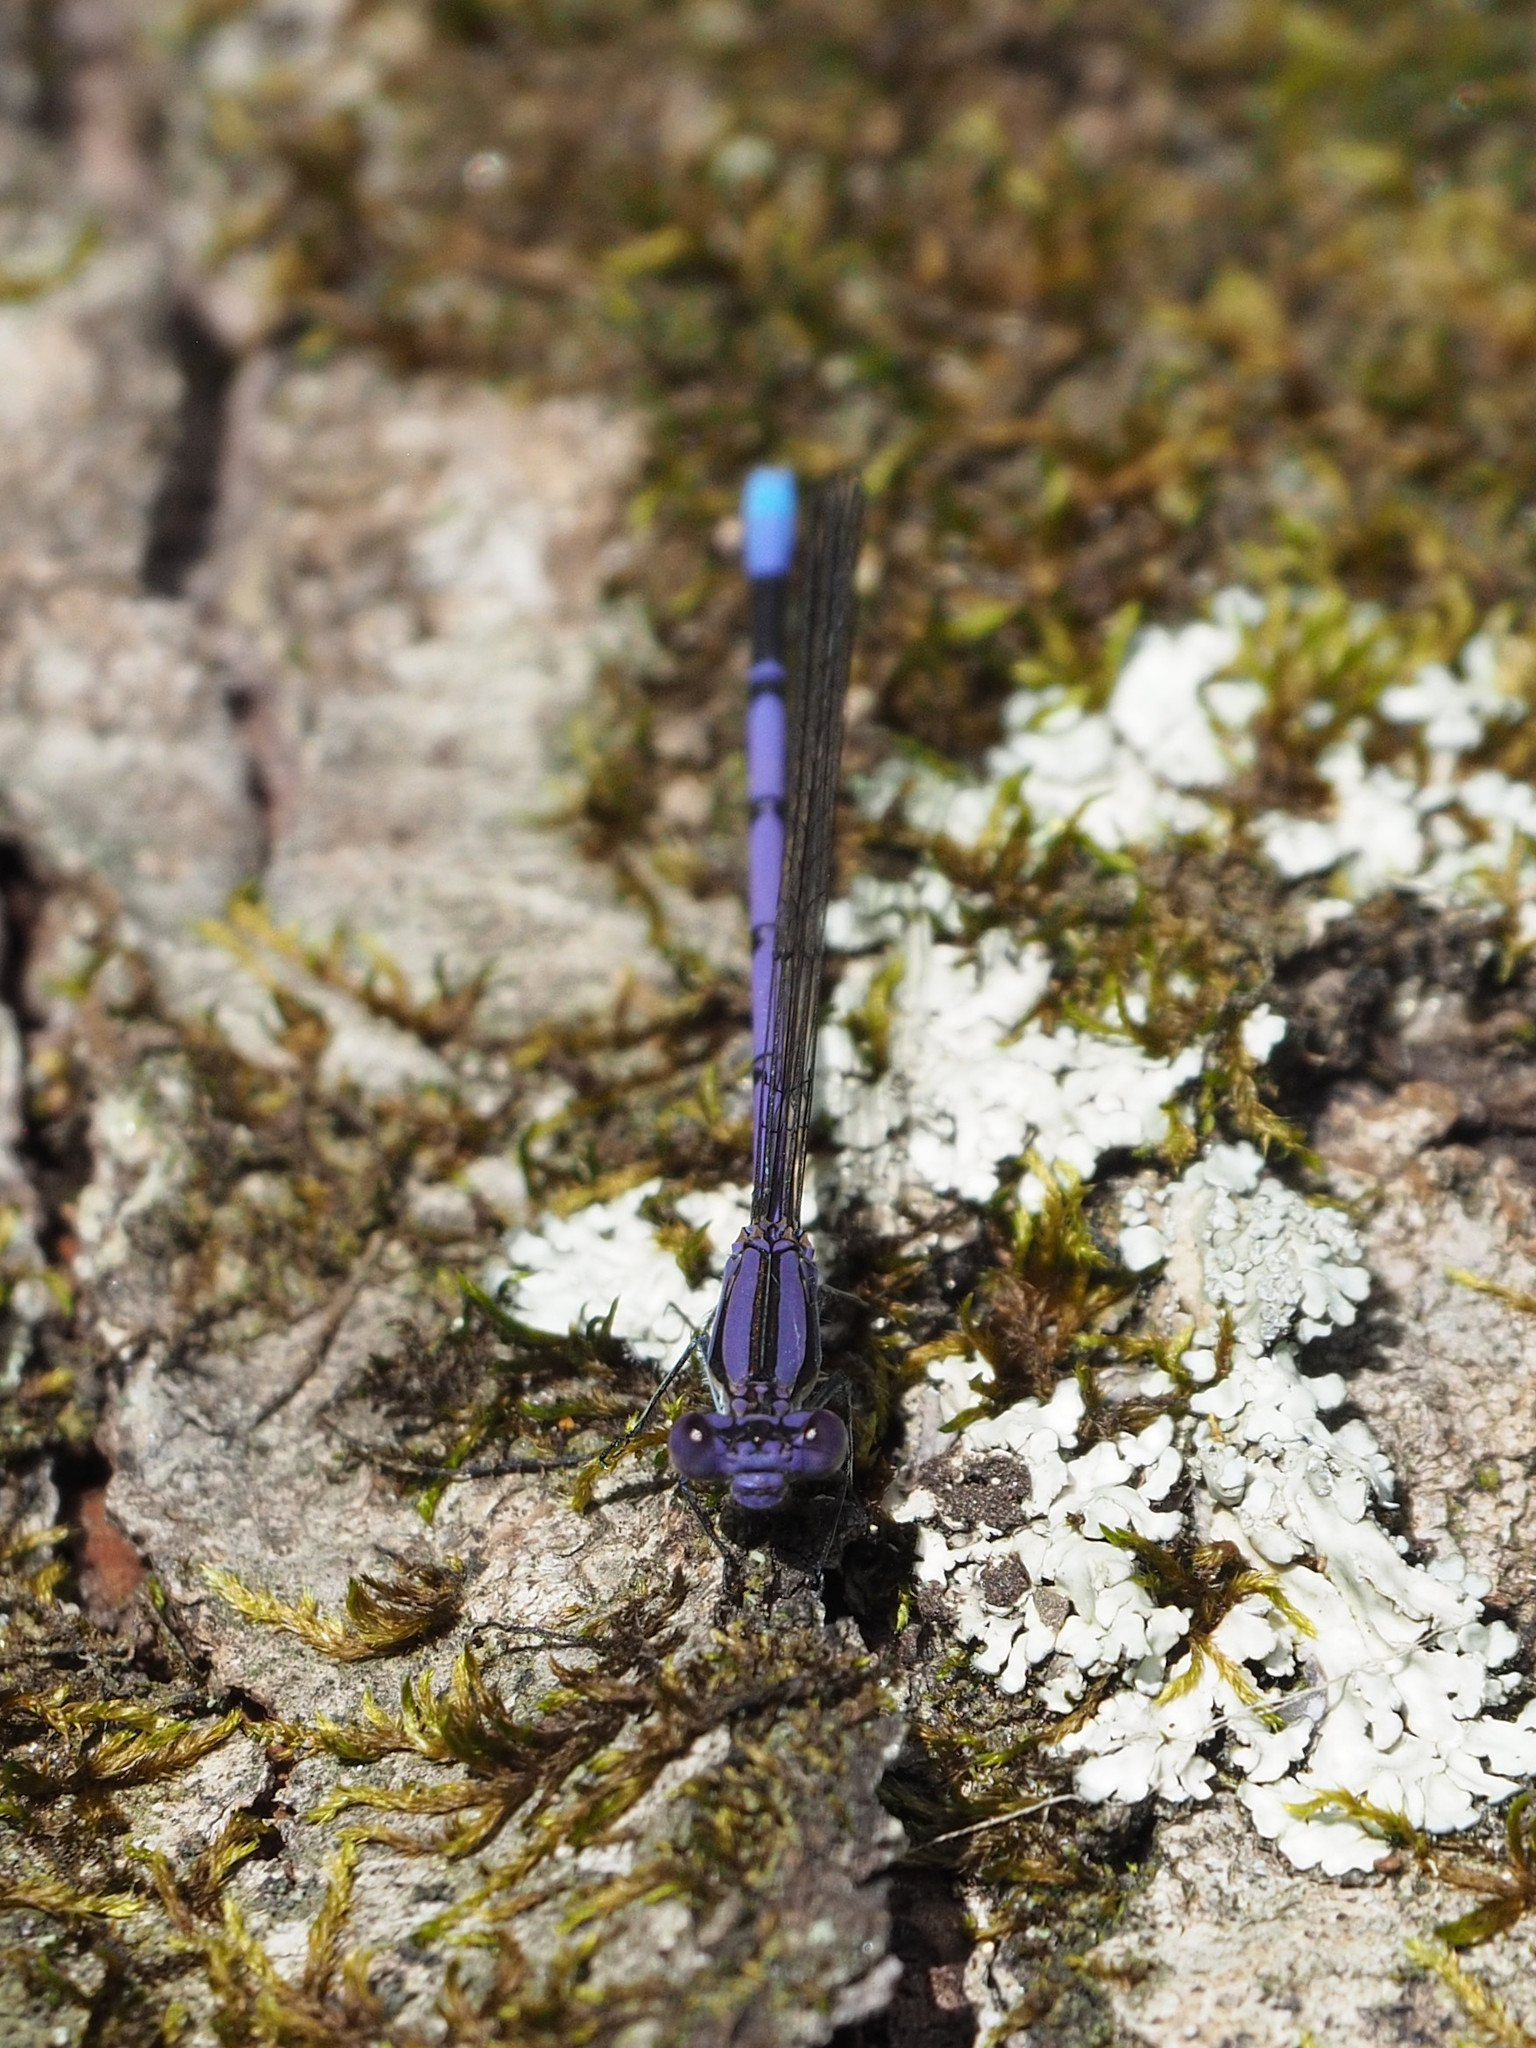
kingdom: Animalia
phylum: Arthropoda
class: Insecta
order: Odonata
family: Coenagrionidae
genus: Argia
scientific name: Argia fumipennis
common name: Variable dancer
